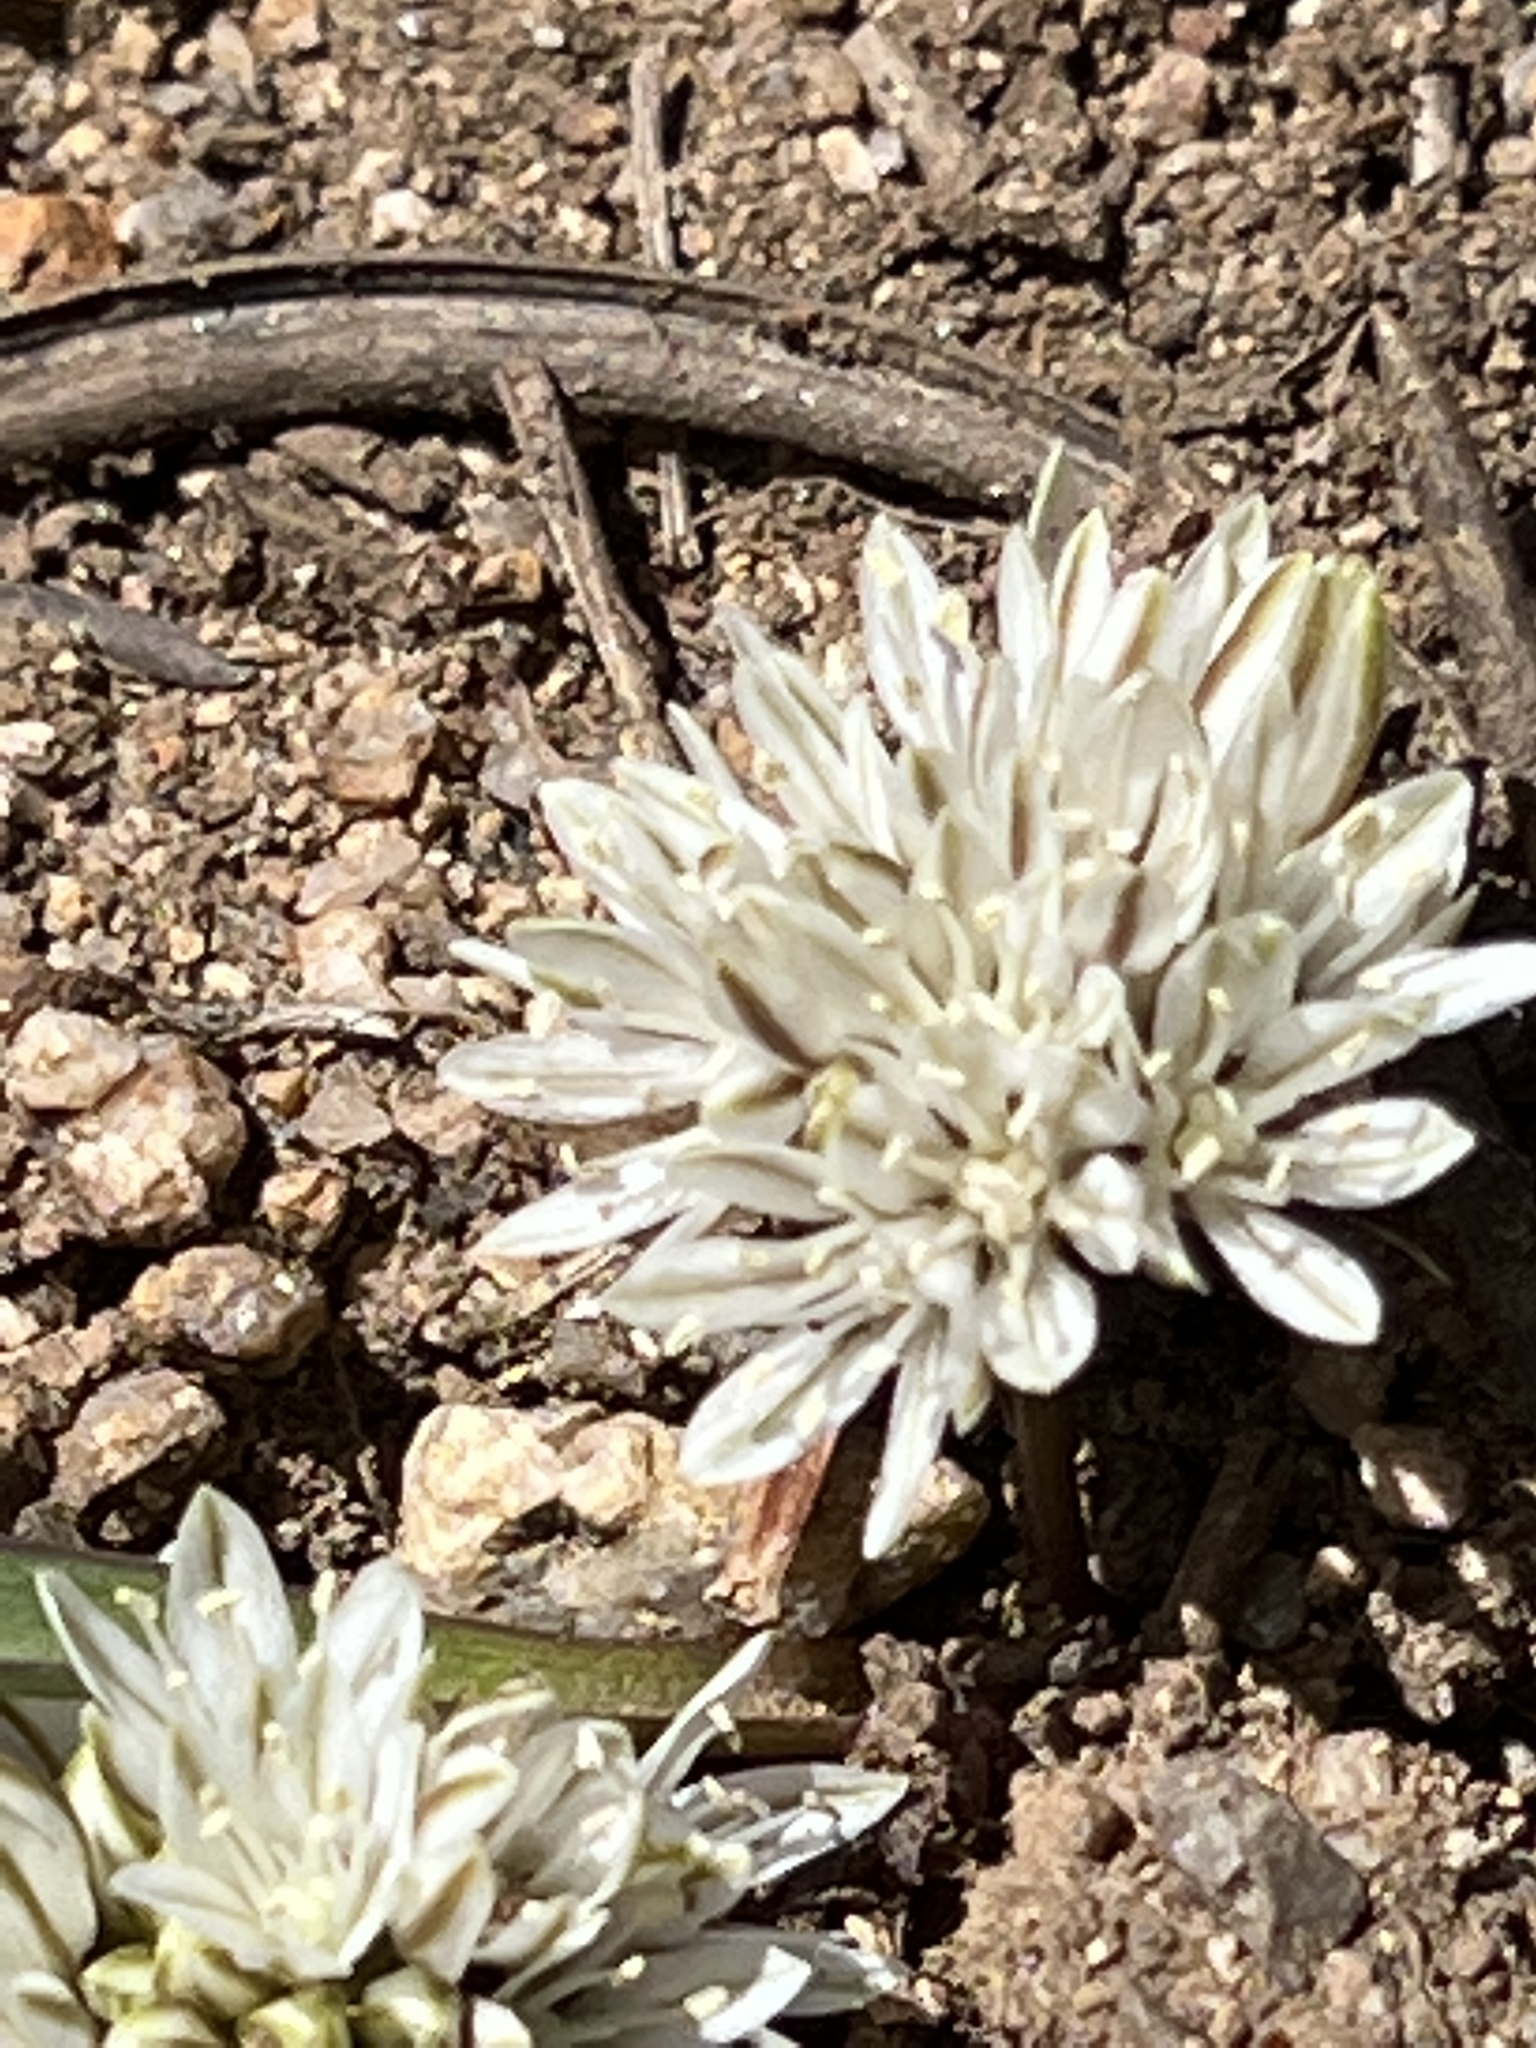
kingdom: Plantae
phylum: Tracheophyta
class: Liliopsida
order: Asparagales
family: Amaryllidaceae
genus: Allium
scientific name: Allium obtusum
